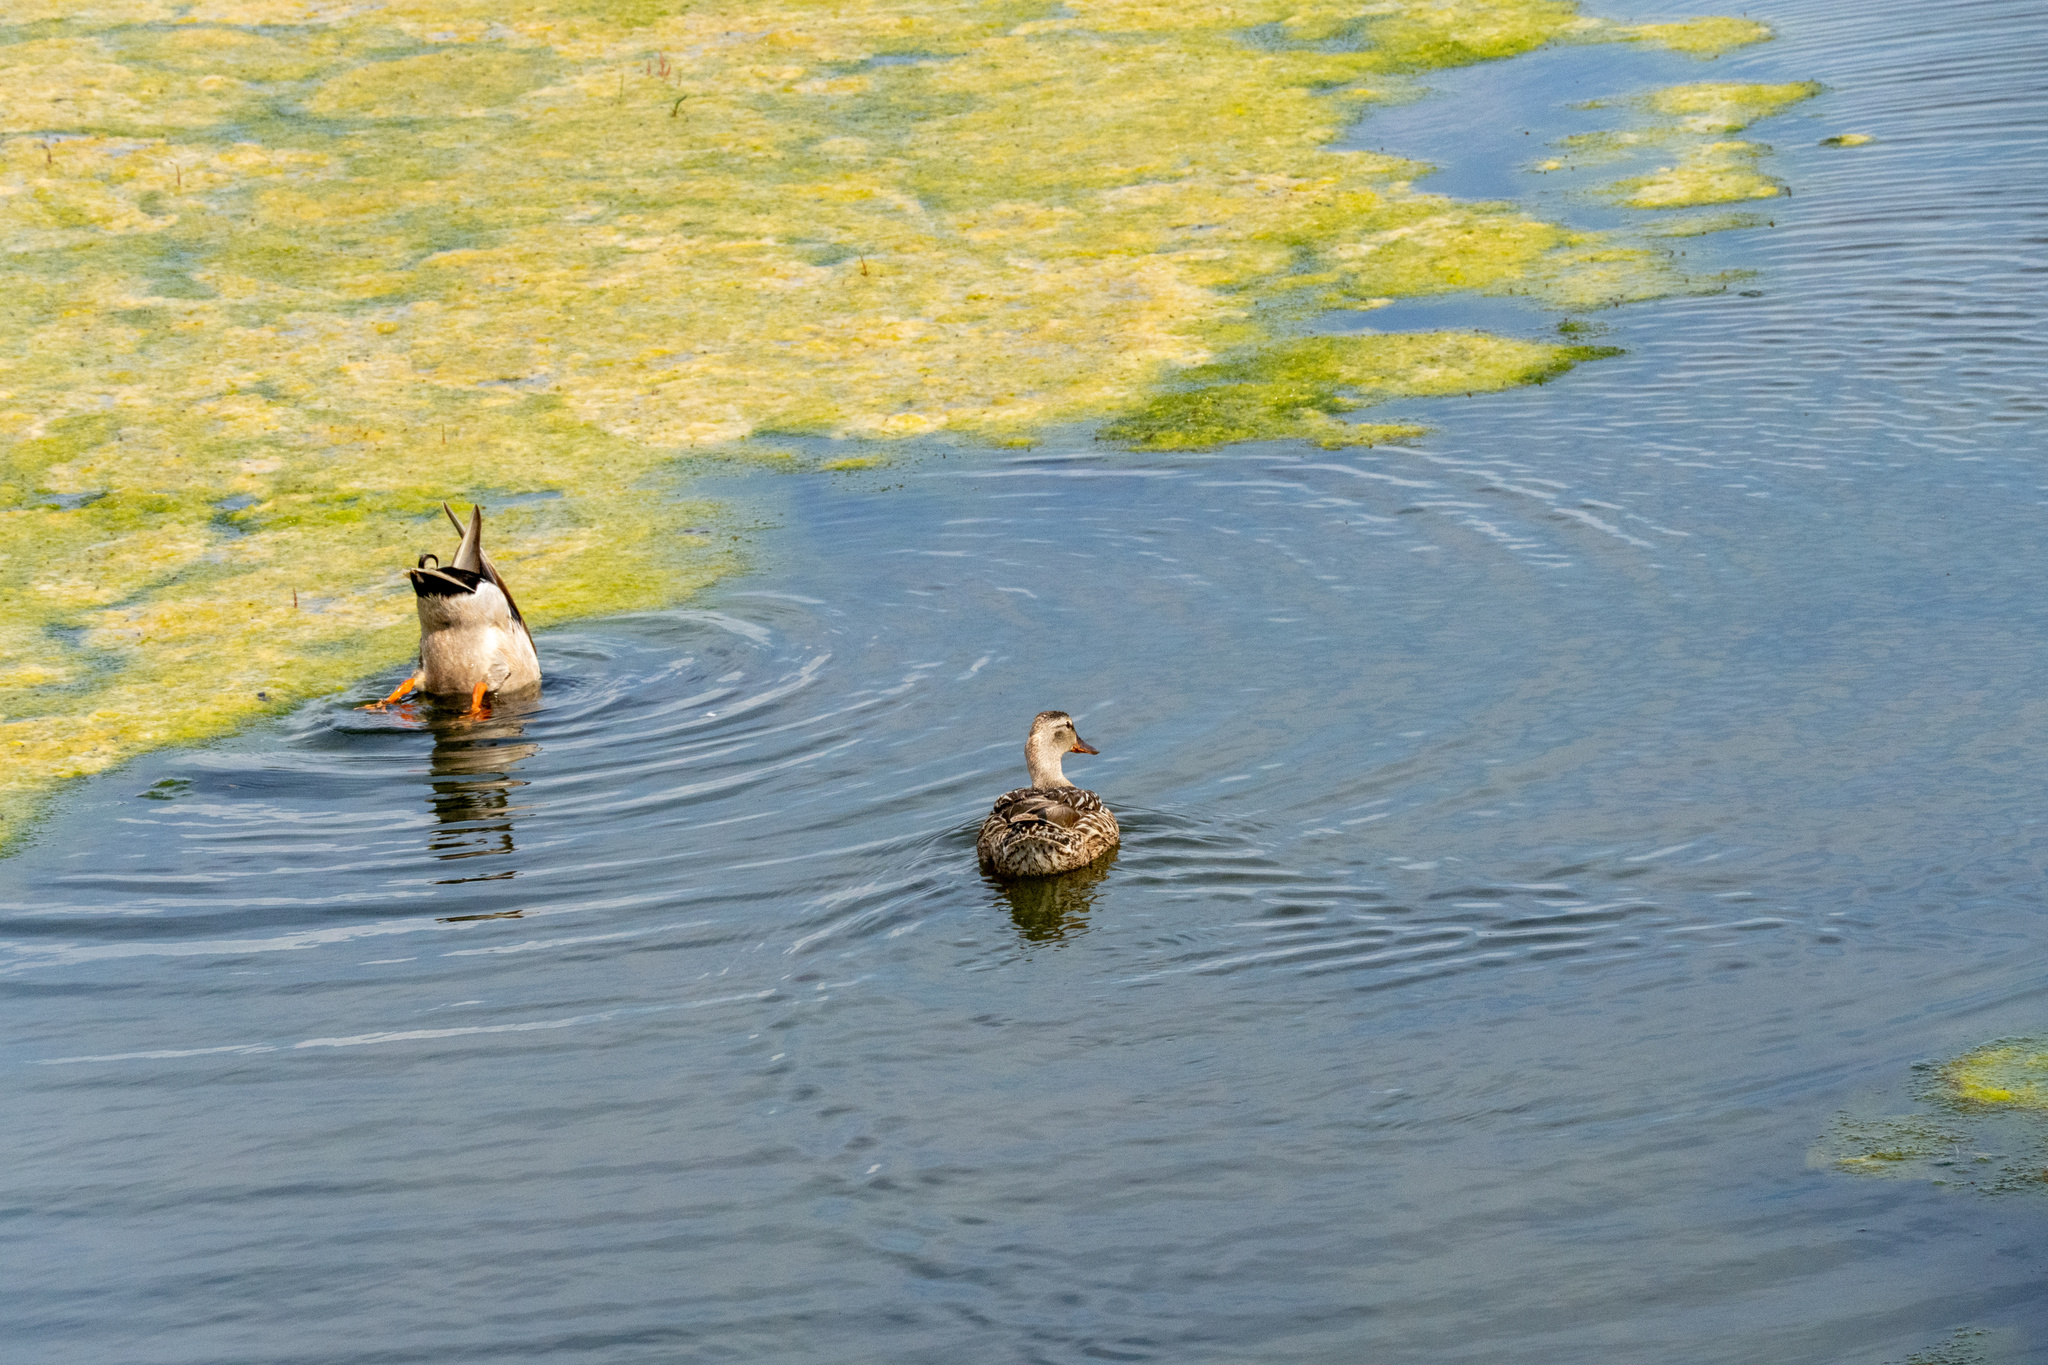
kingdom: Animalia
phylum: Chordata
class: Aves
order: Anseriformes
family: Anatidae
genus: Anas
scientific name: Anas platyrhynchos
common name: Mallard
